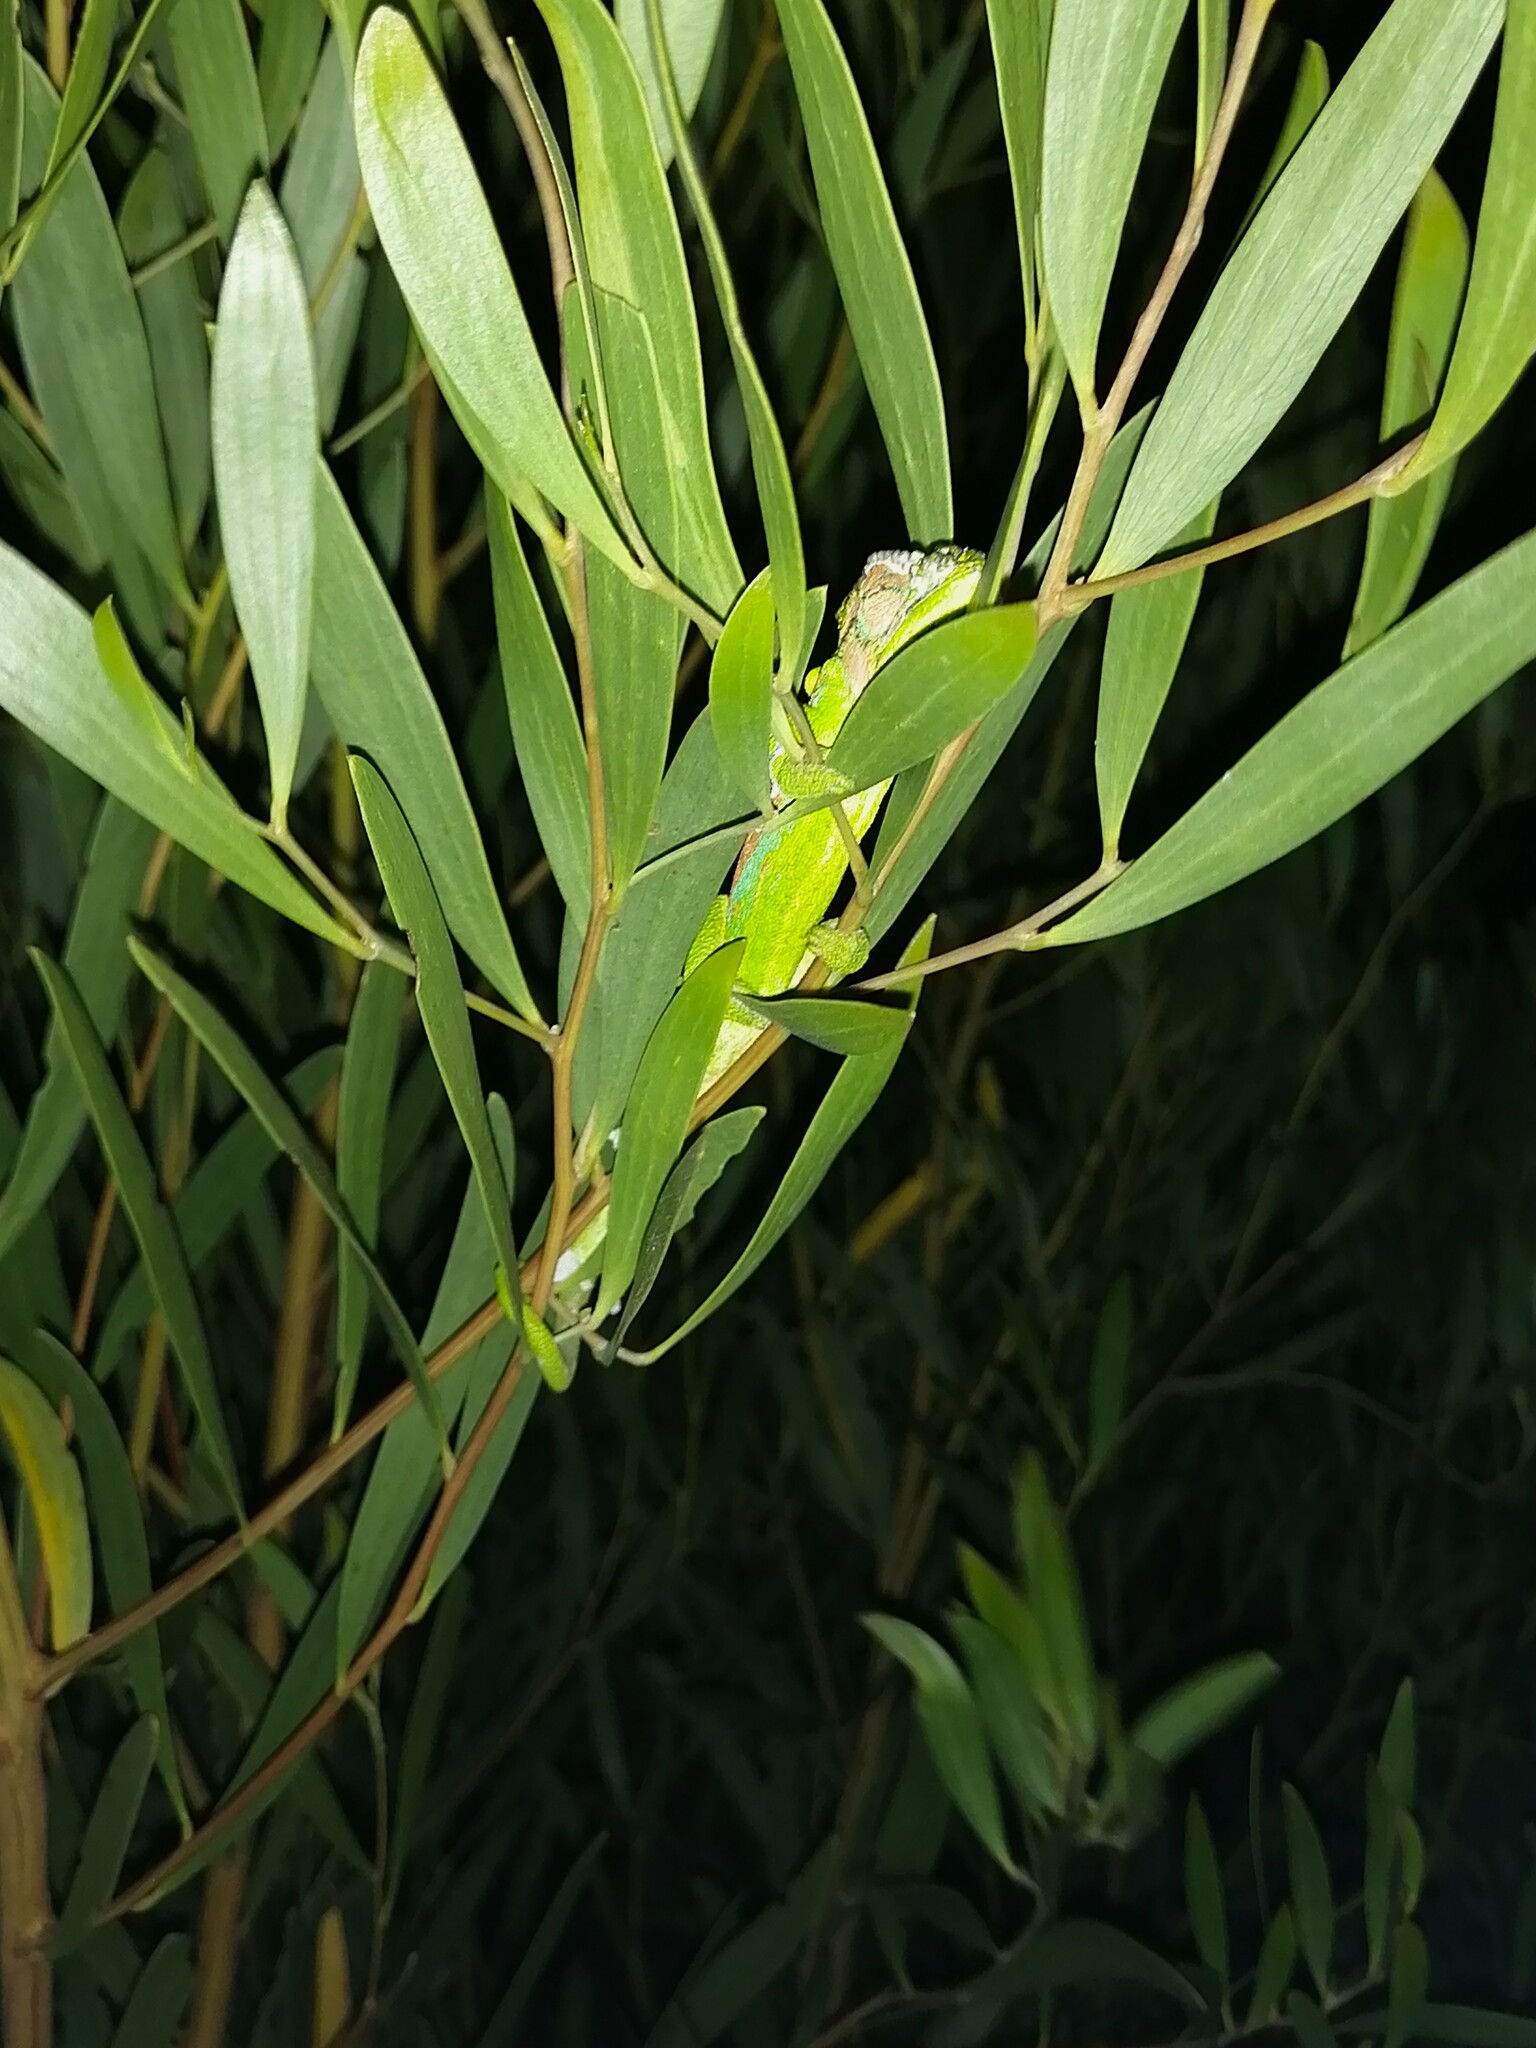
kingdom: Animalia
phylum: Chordata
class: Squamata
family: Chamaeleonidae
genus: Bradypodion
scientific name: Bradypodion pumilum
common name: Cape dwarf chameleon
